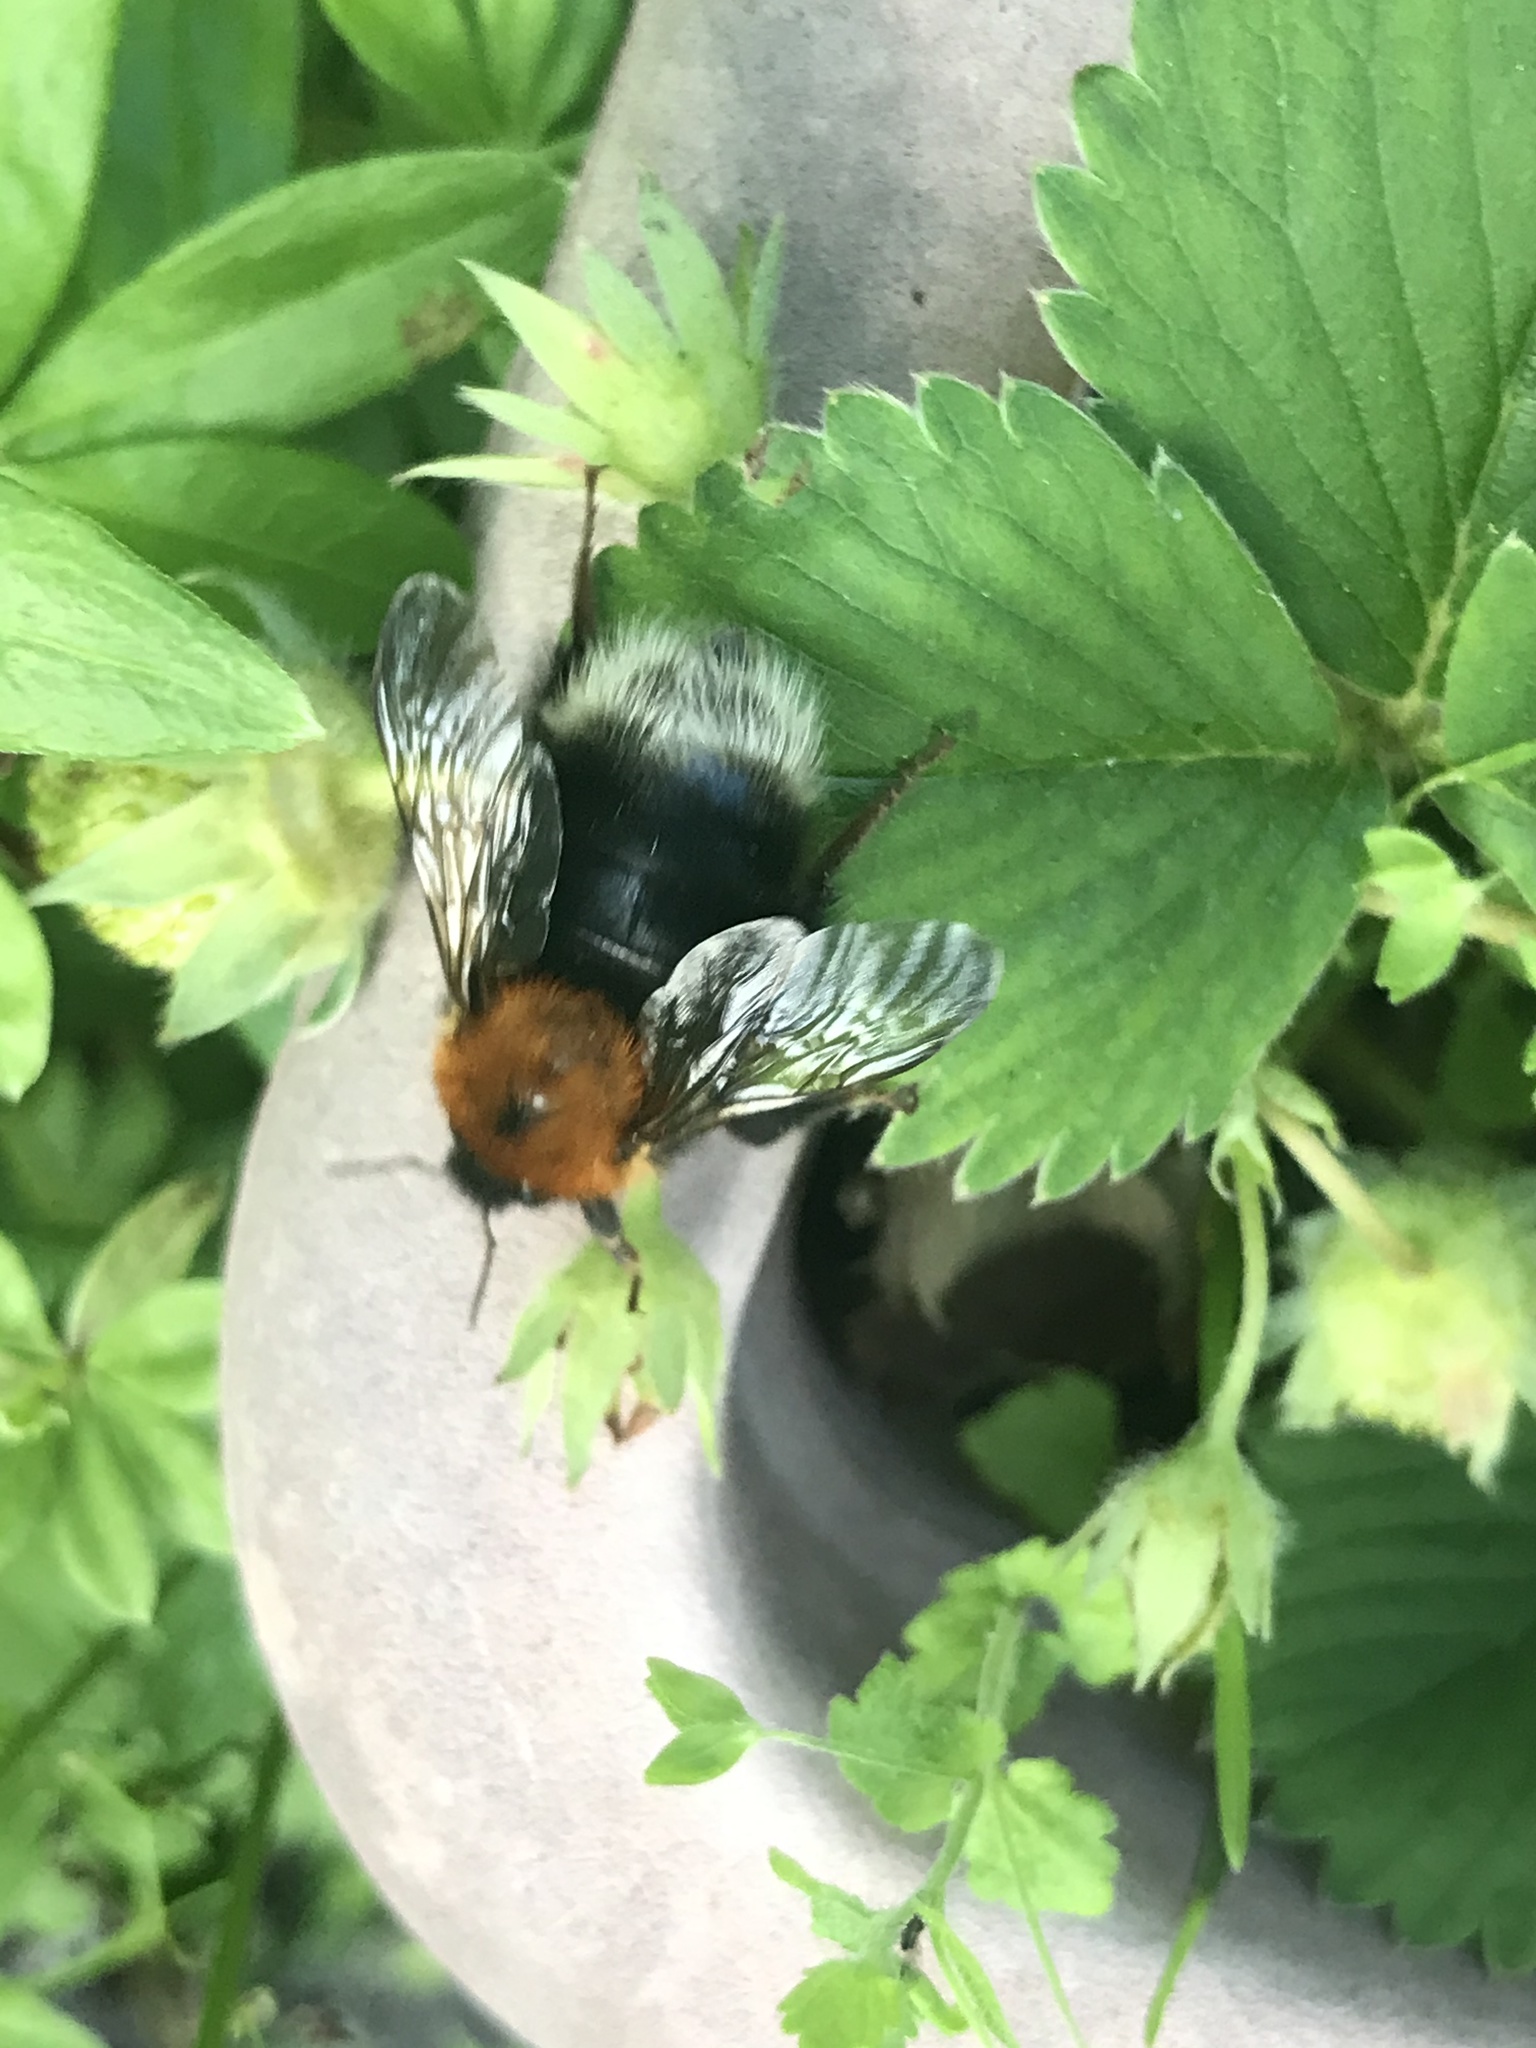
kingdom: Animalia
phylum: Arthropoda
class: Insecta
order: Hymenoptera
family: Apidae
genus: Bombus
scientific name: Bombus hypnorum
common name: New garden bumblebee
